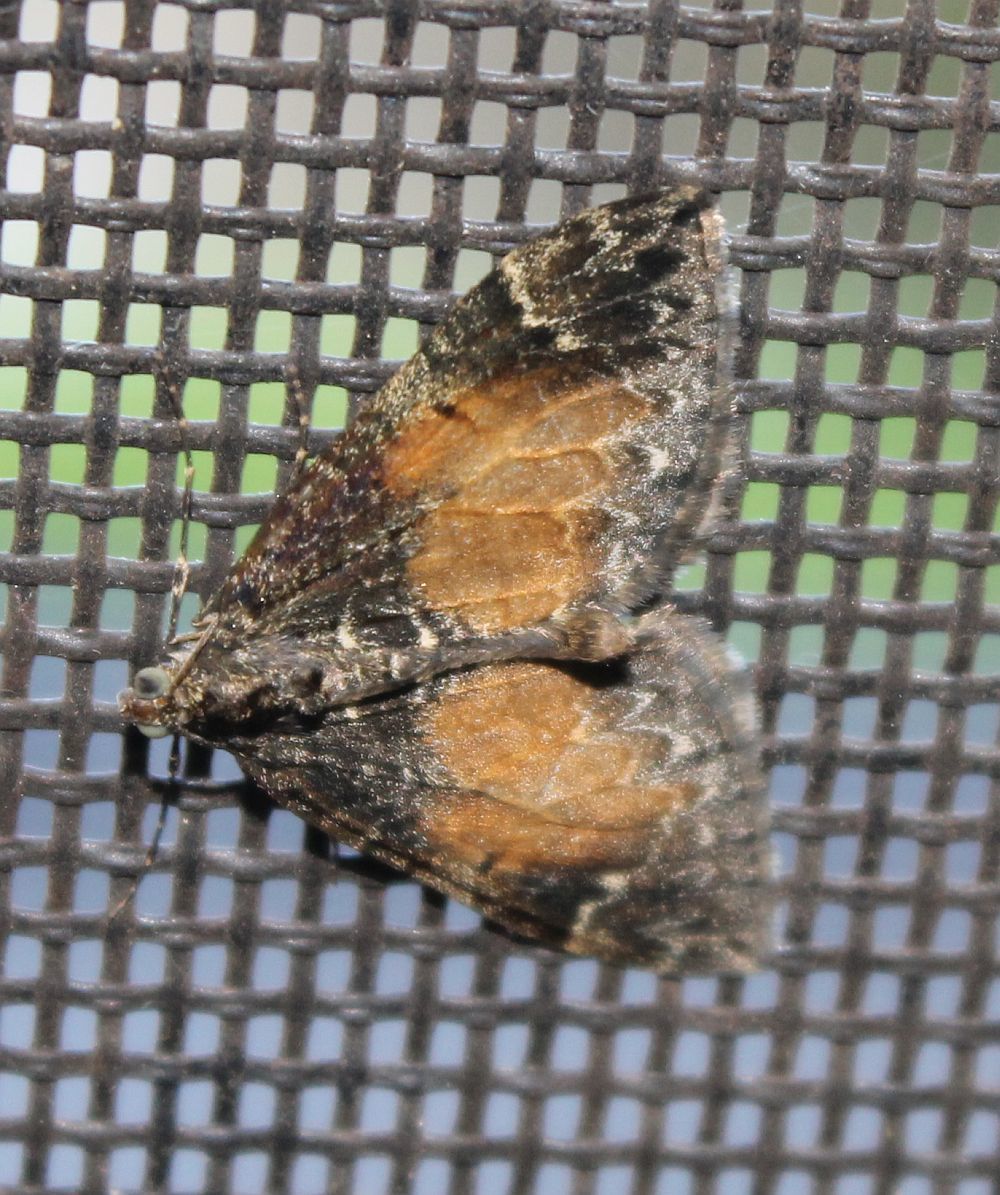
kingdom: Animalia
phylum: Arthropoda
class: Insecta
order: Lepidoptera
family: Geometridae
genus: Dysstroma
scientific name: Dysstroma truncata
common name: Common marbled carpet
